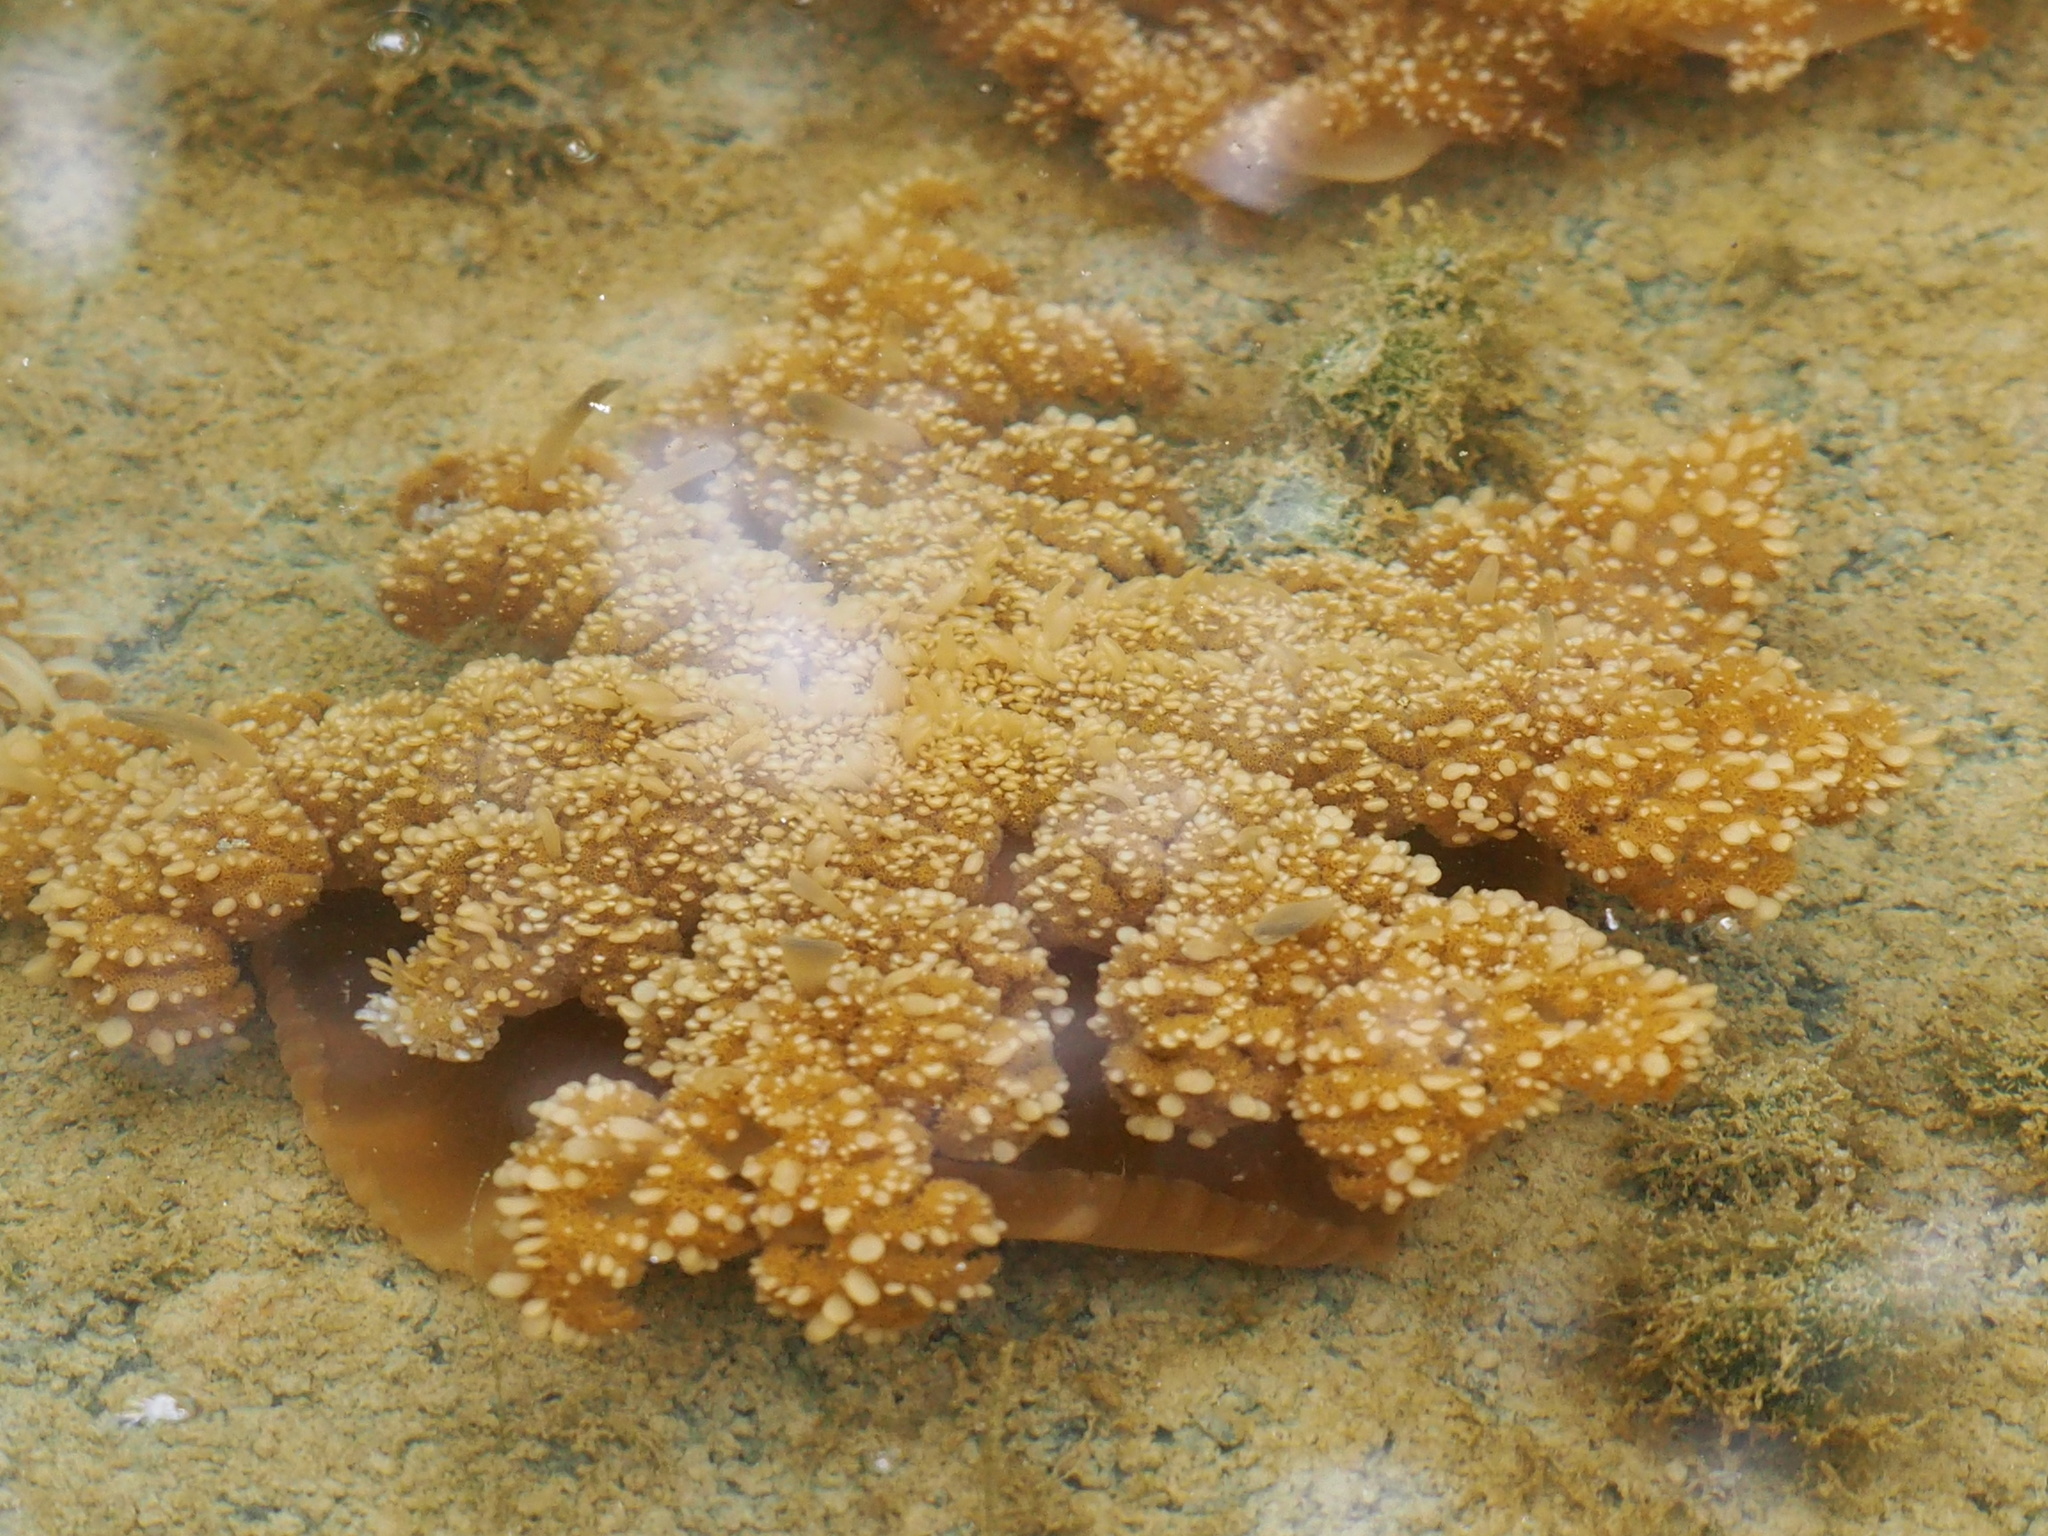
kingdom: Animalia
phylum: Cnidaria
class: Scyphozoa
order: Rhizostomeae
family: Cassiopeidae
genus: Cassiopea
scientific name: Cassiopea andromeda
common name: Upside-down jellyfish
